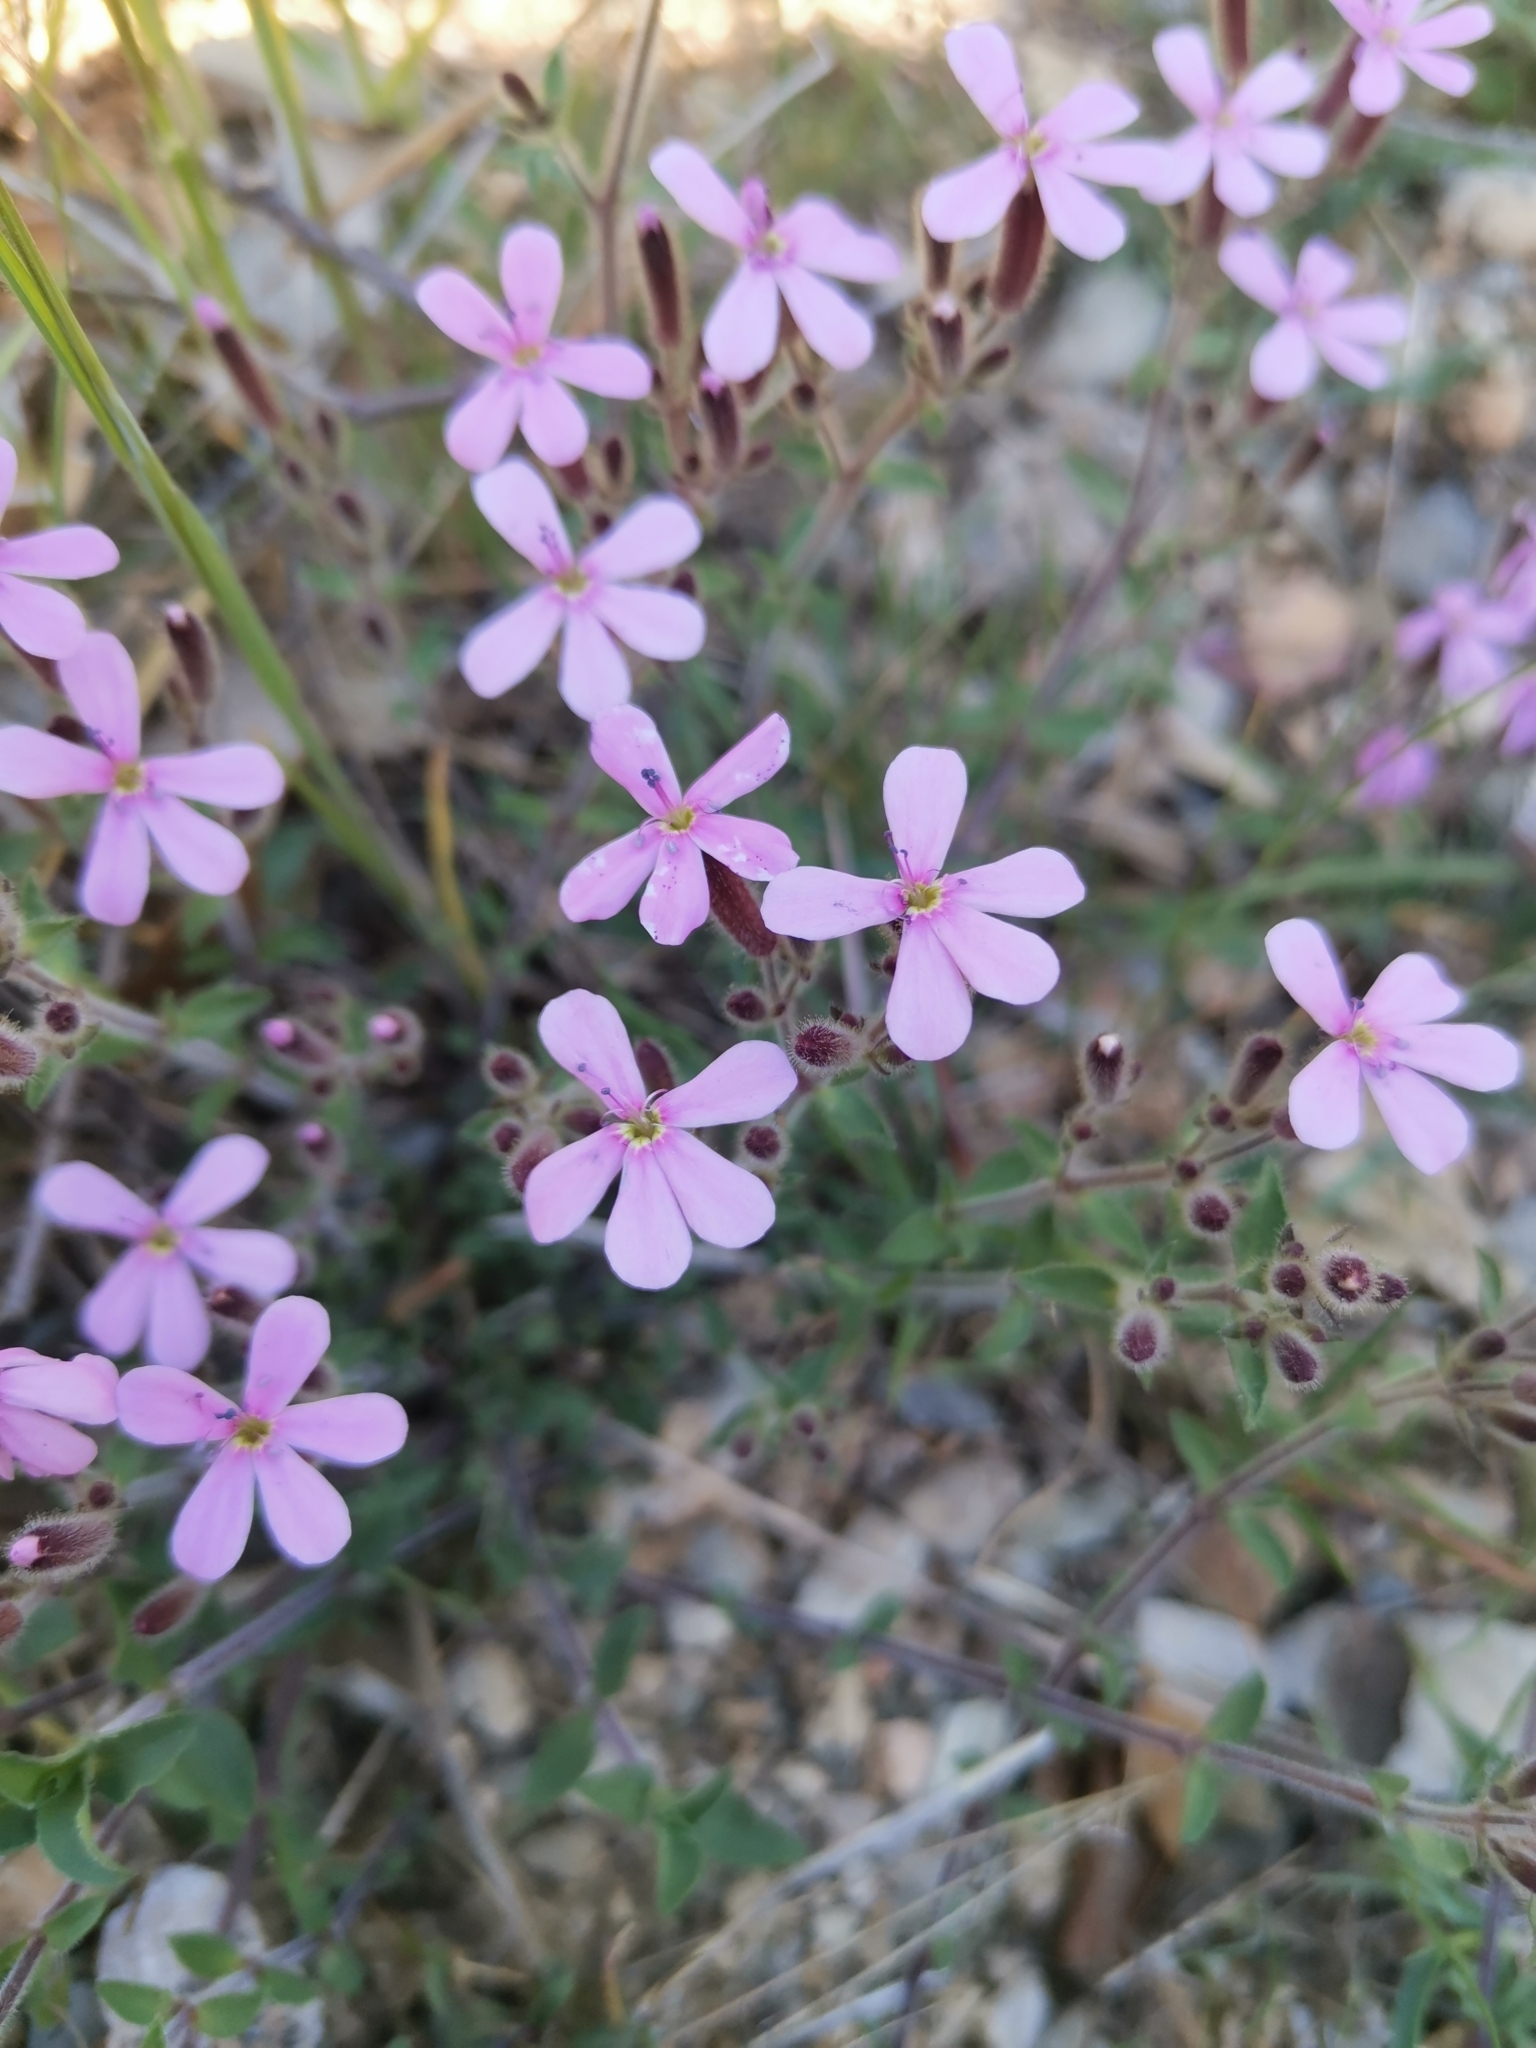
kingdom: Plantae
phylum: Tracheophyta
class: Magnoliopsida
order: Caryophyllales
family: Caryophyllaceae
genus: Saponaria
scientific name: Saponaria ocymoides
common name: Rock soapwort
